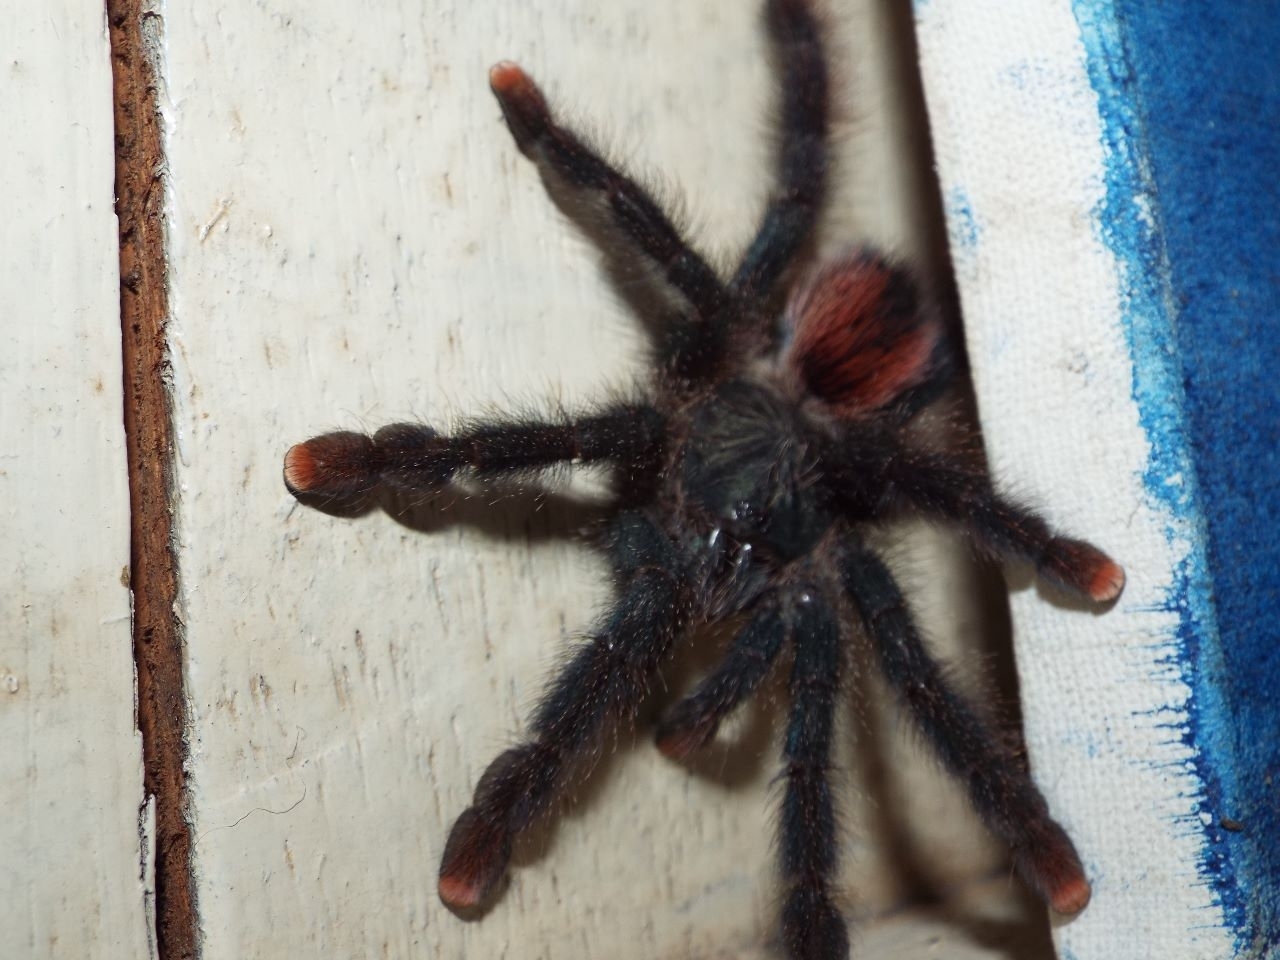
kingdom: Animalia
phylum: Arthropoda
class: Arachnida
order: Araneae
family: Theraphosidae
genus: Avicularia
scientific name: Avicularia avicularia
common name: Tarantula spiders
